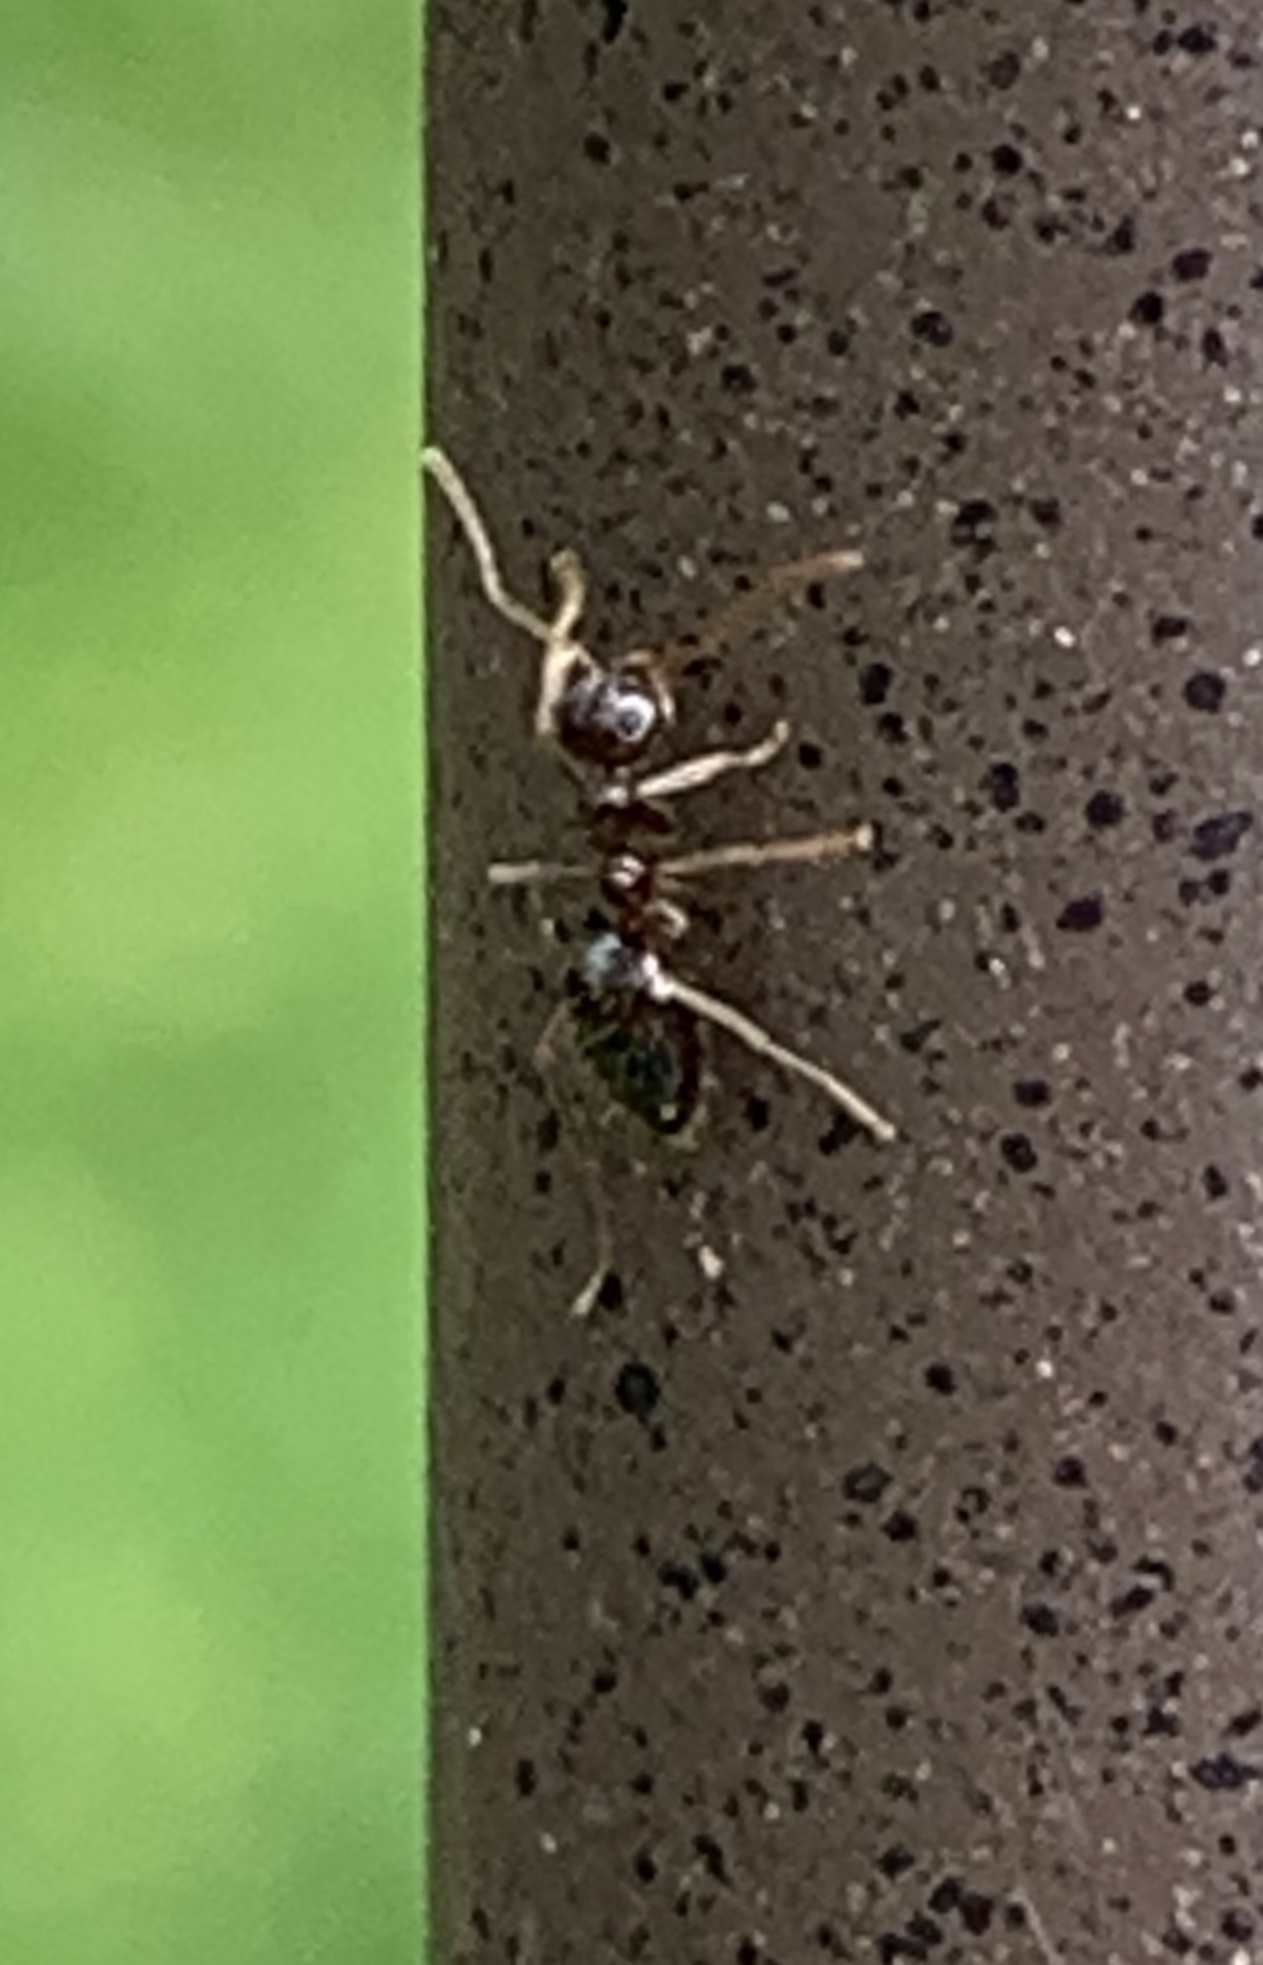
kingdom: Animalia
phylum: Arthropoda
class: Insecta
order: Hymenoptera
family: Formicidae
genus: Prenolepis
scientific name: Prenolepis imparis
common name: Small honey ant
